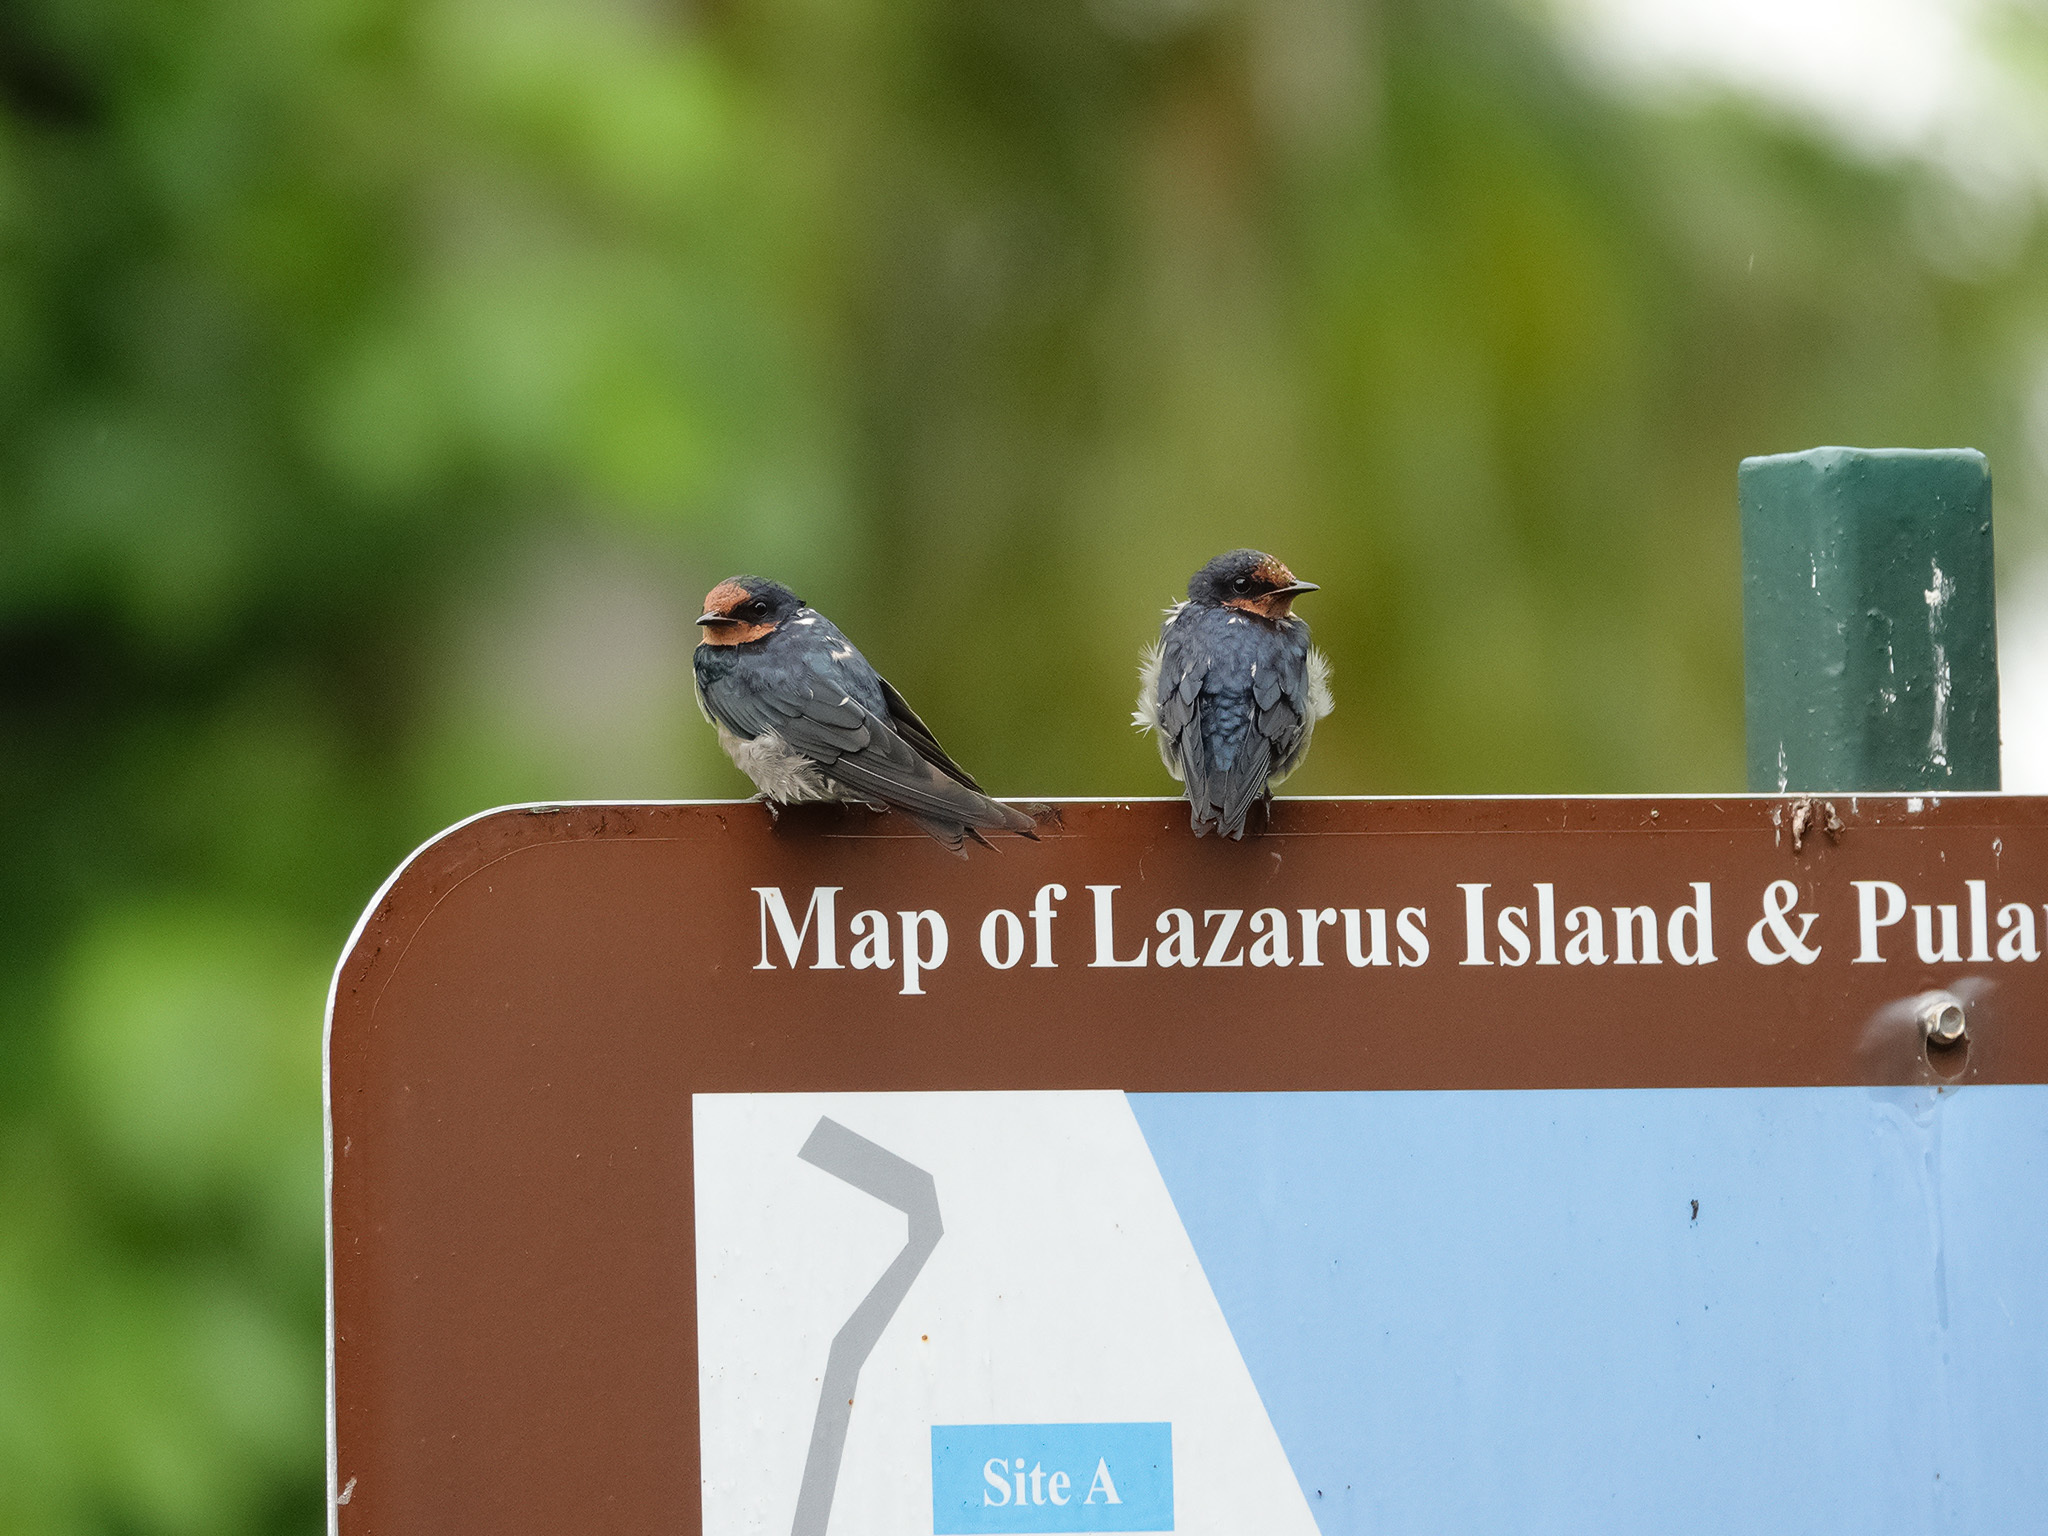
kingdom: Animalia
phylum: Chordata
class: Aves
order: Passeriformes
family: Hirundinidae
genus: Hirundo
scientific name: Hirundo tahitica
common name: Pacific swallow
